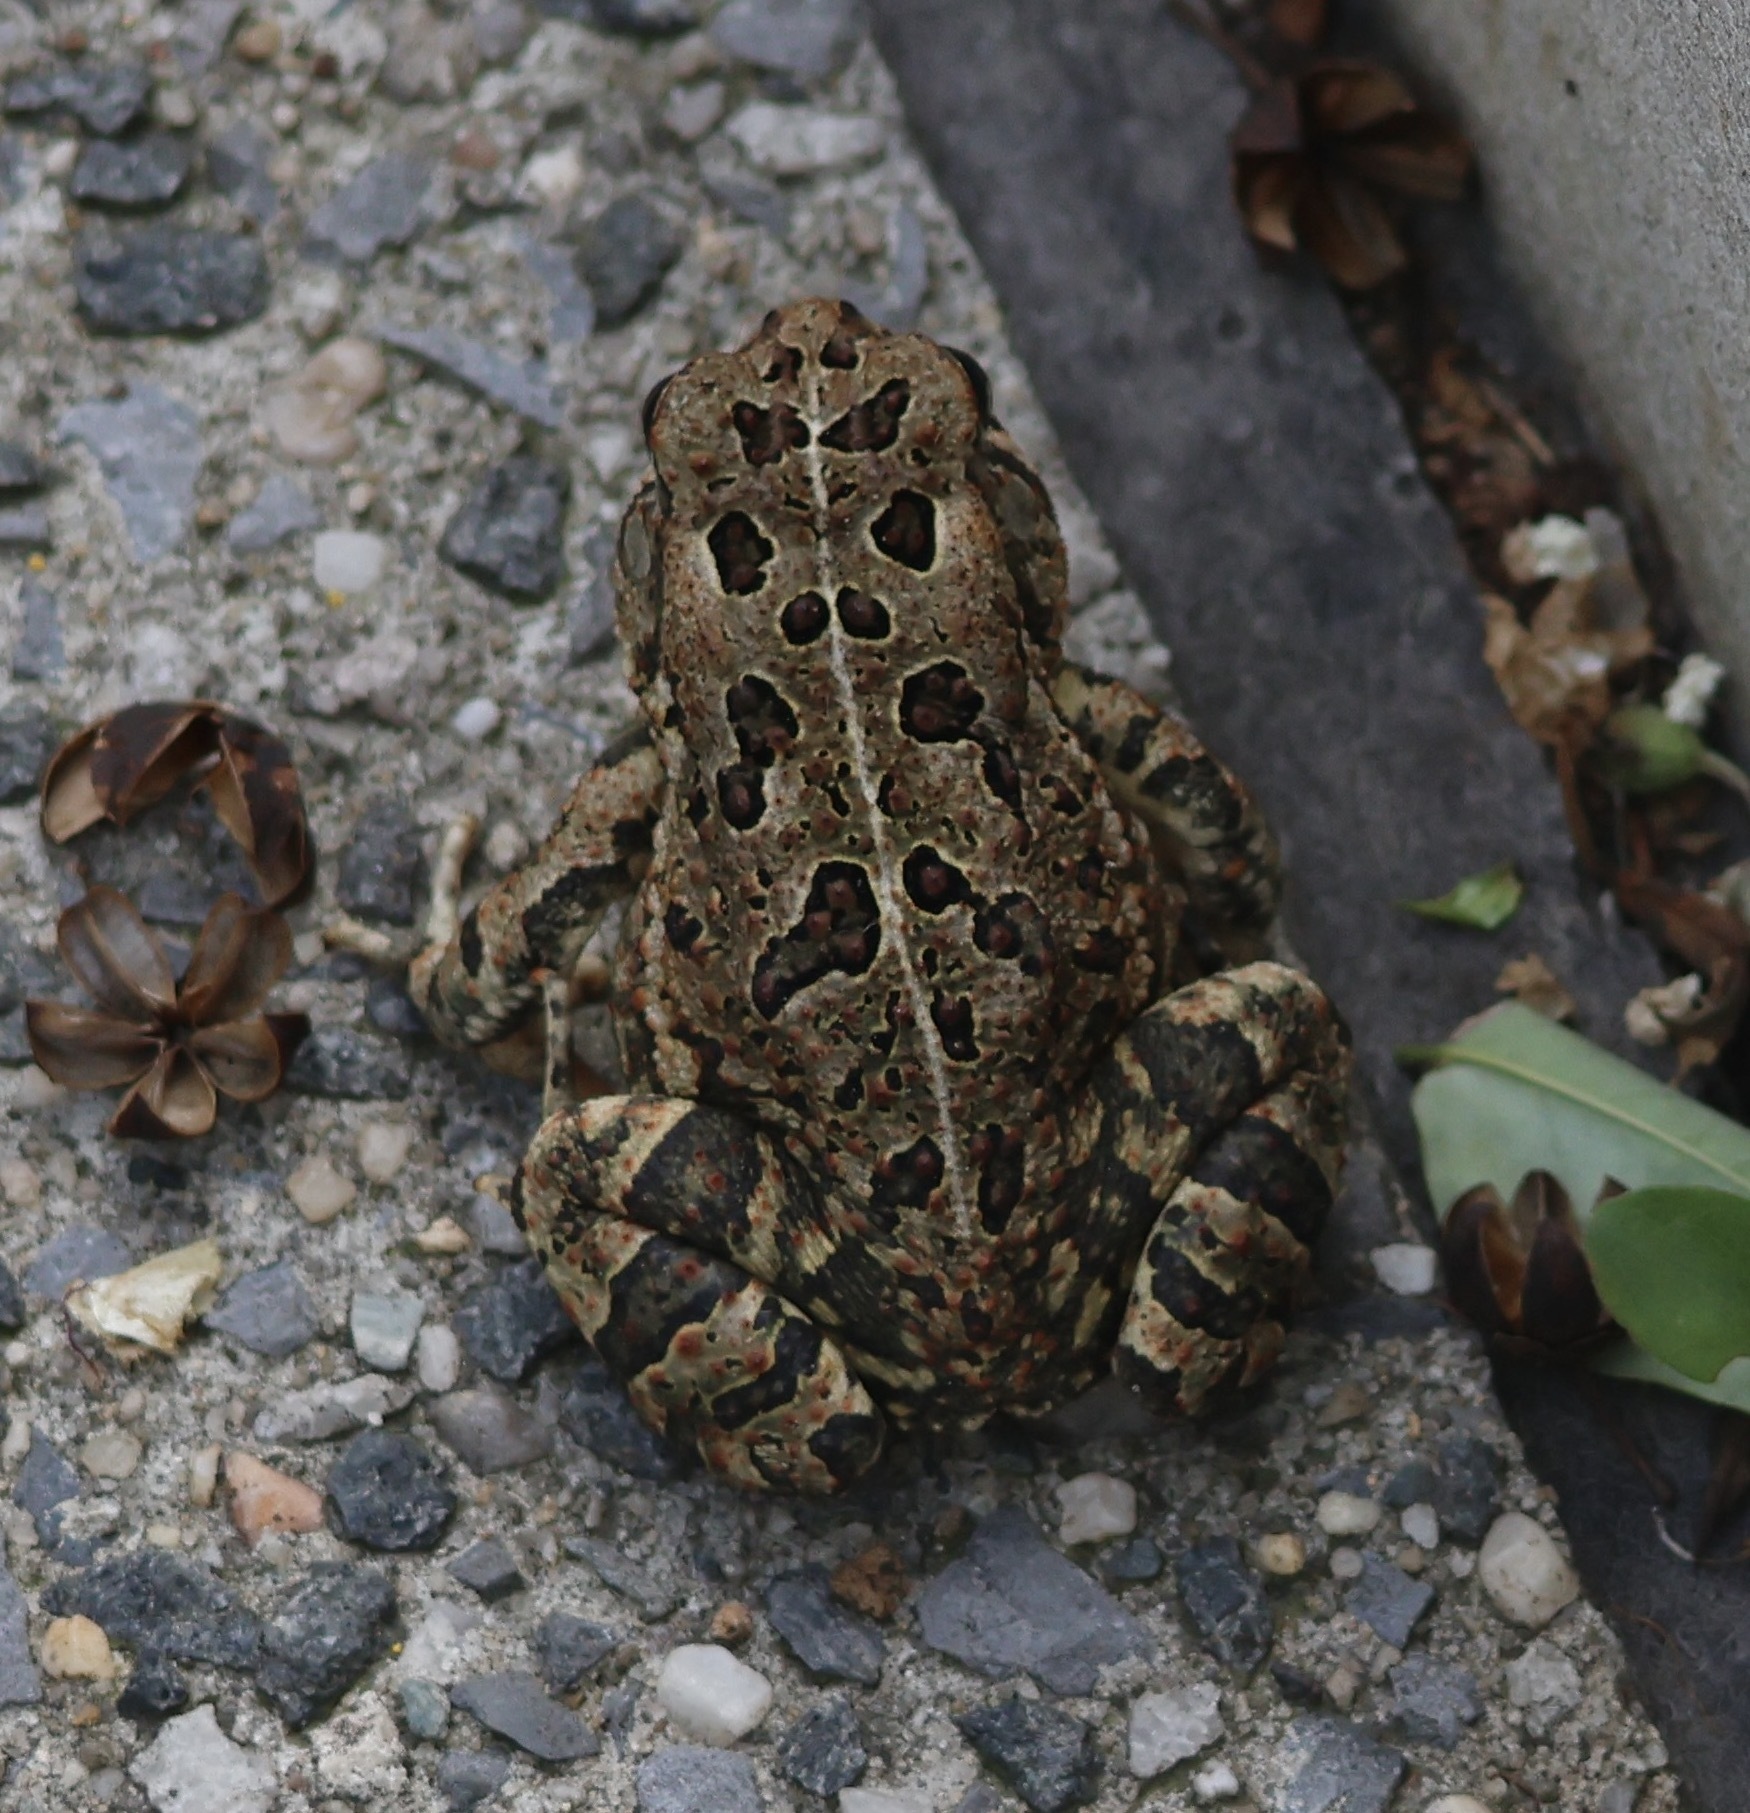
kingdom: Animalia
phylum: Chordata
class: Amphibia
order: Anura
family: Bufonidae
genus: Anaxyrus
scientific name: Anaxyrus fowleri
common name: Fowler's toad
